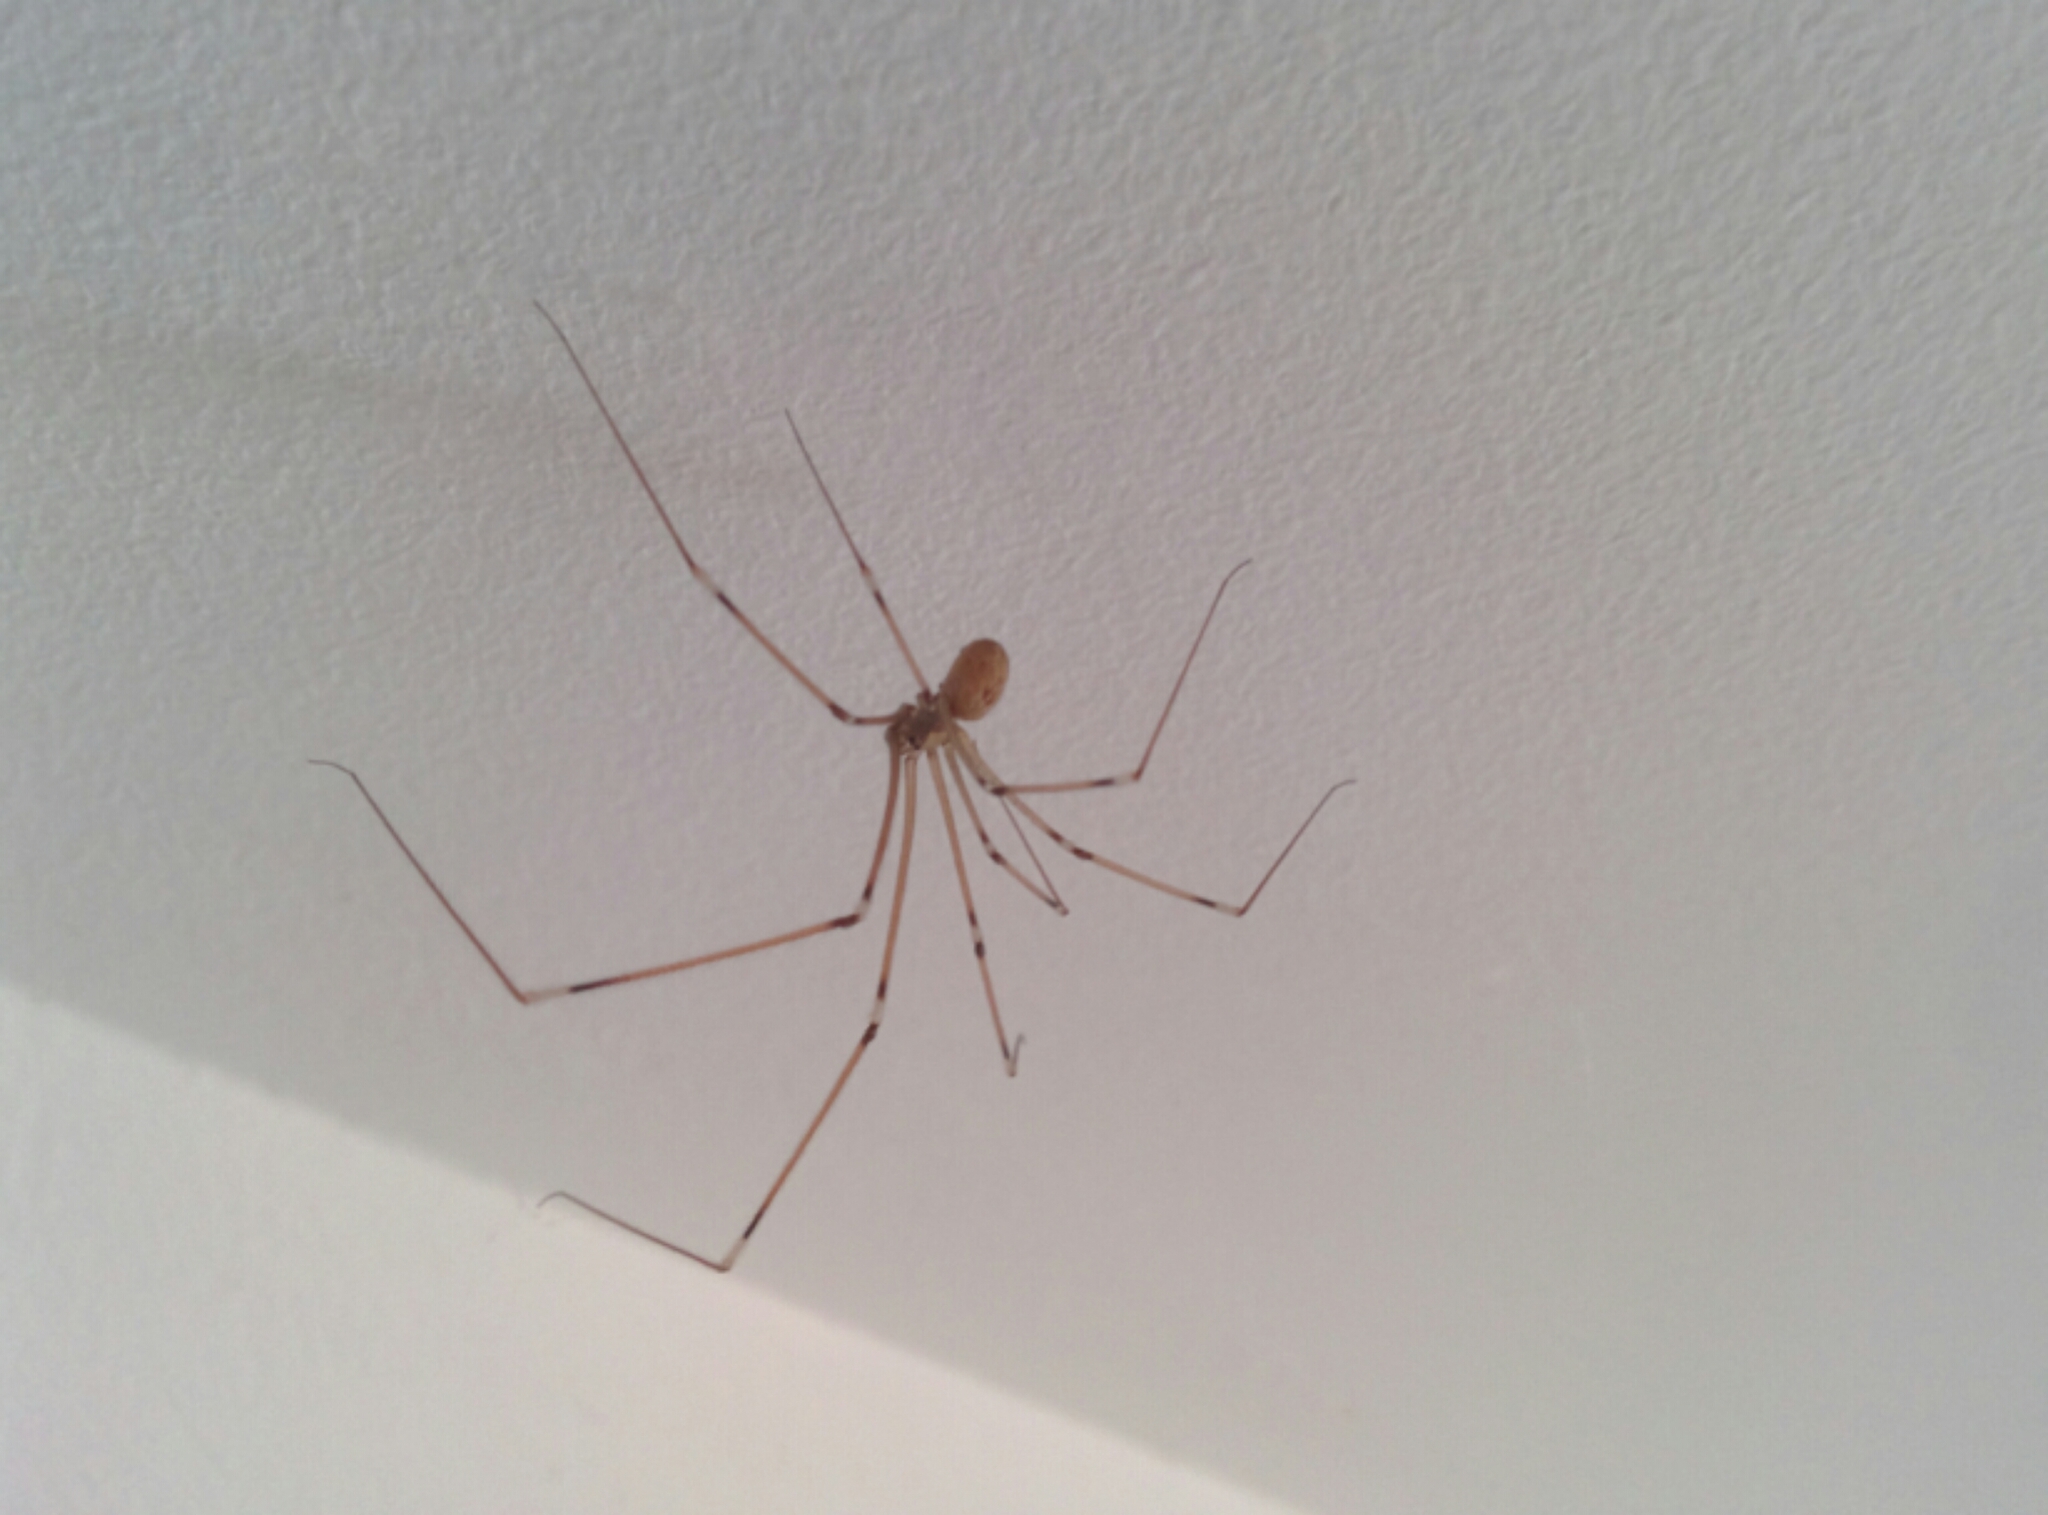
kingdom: Animalia
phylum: Arthropoda
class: Arachnida
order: Araneae
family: Pholcidae
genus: Pholcus
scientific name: Pholcus phalangioides
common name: Longbodied cellar spider
